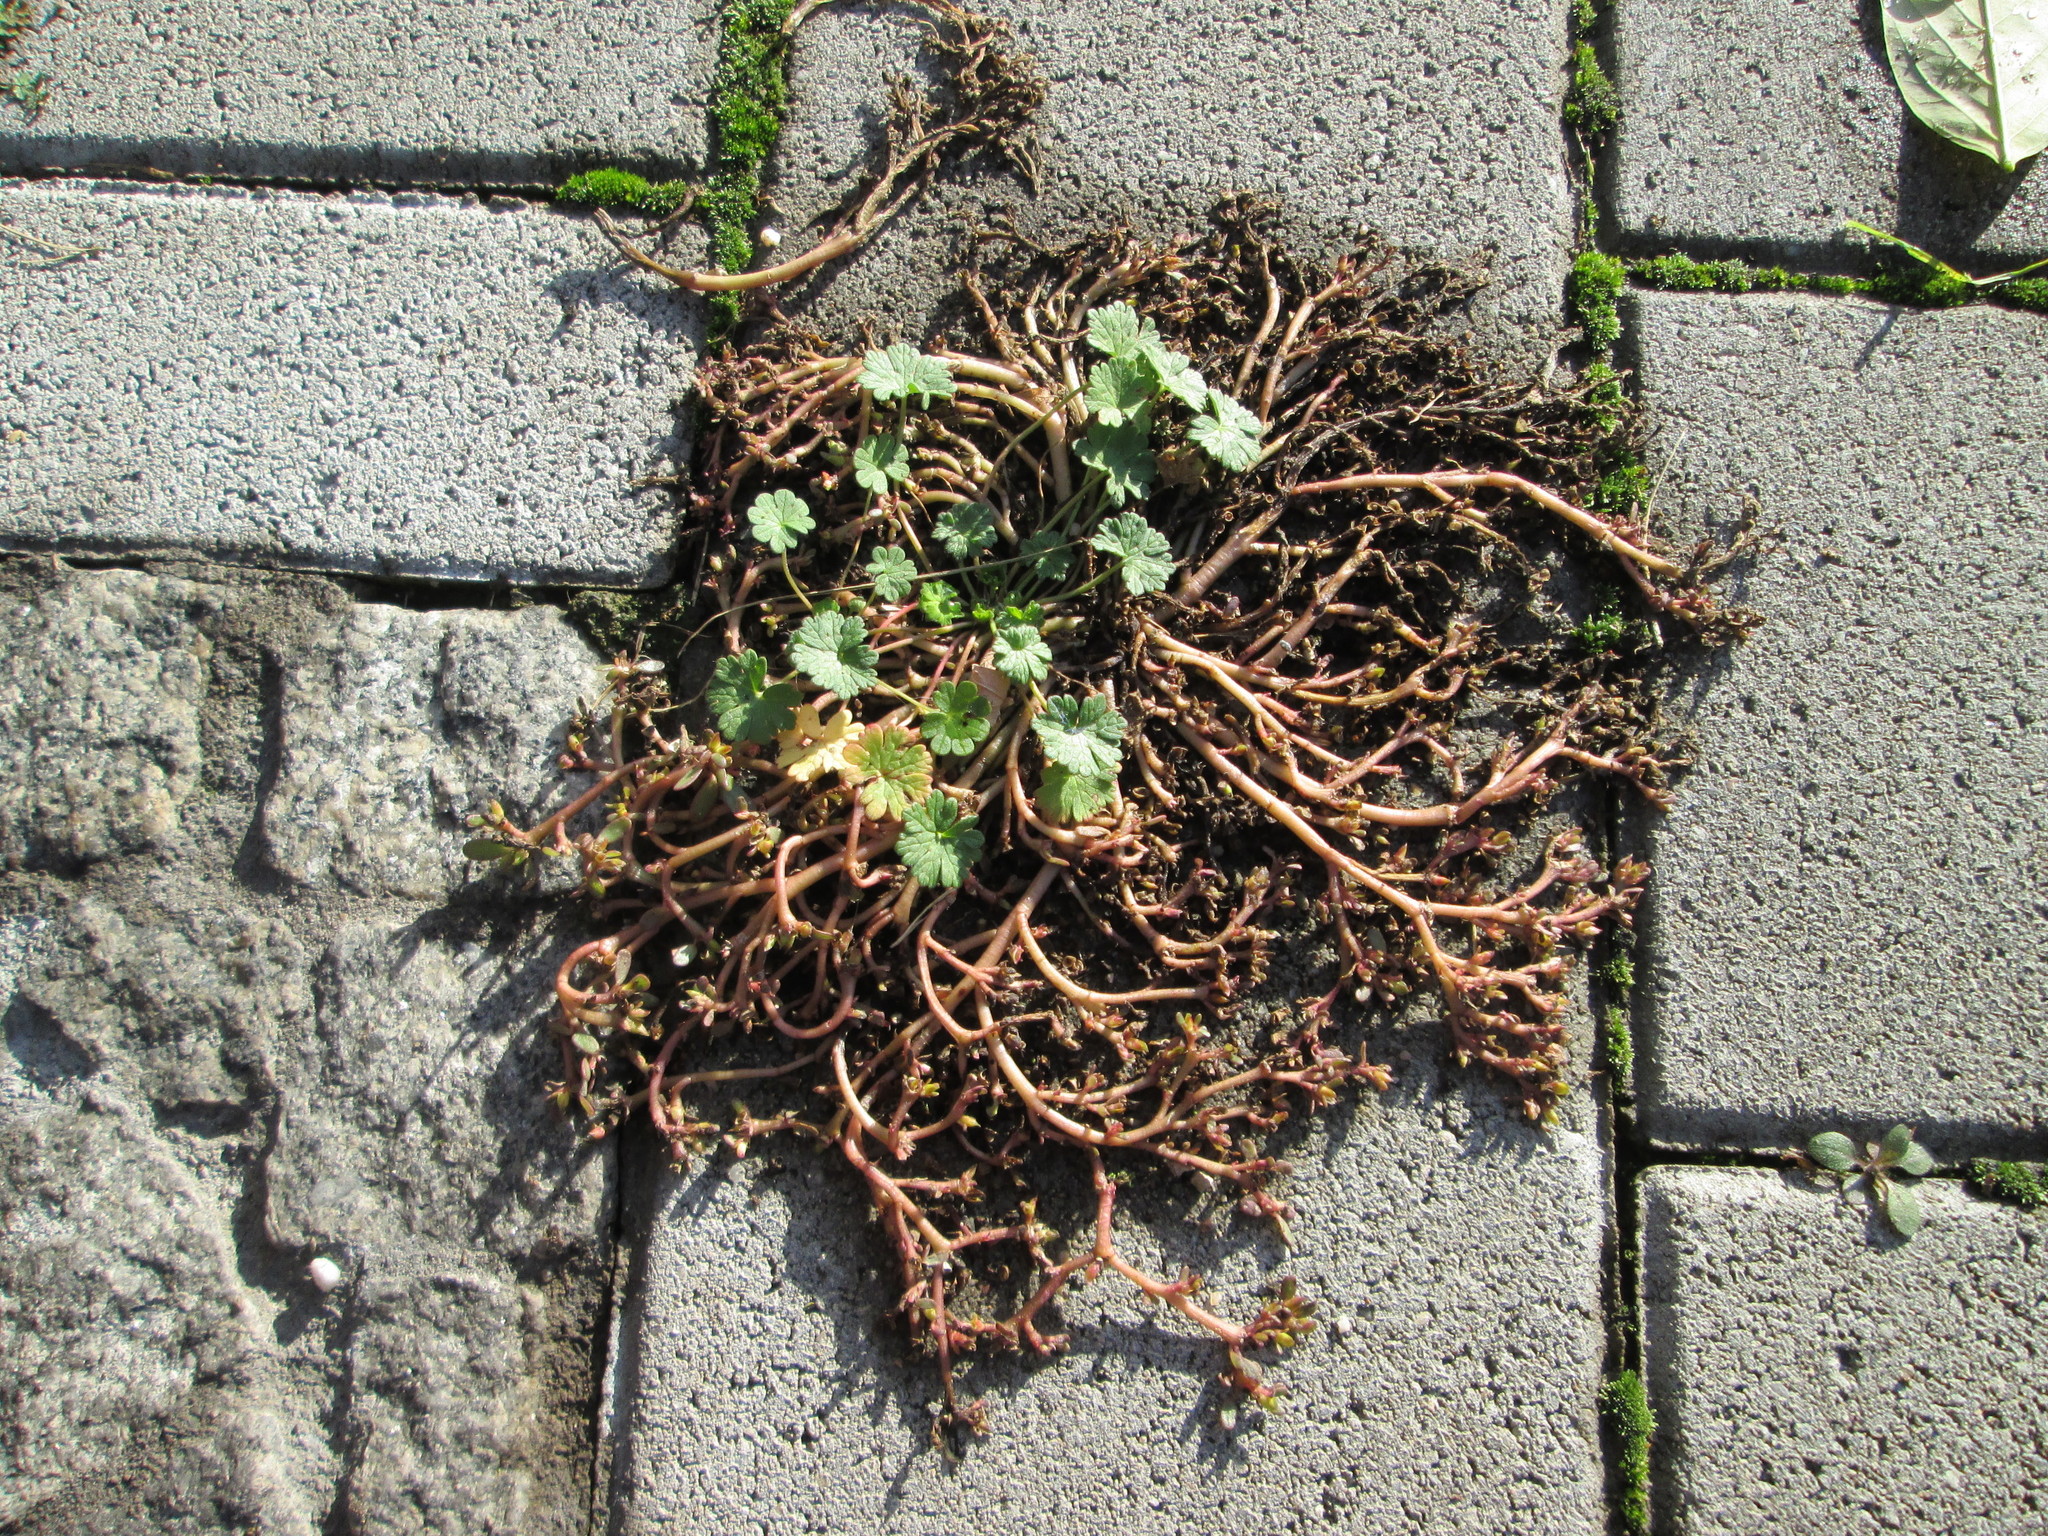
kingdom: Plantae
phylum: Tracheophyta
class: Magnoliopsida
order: Caryophyllales
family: Portulacaceae
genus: Portulaca
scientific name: Portulaca oleracea
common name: Common purslane
